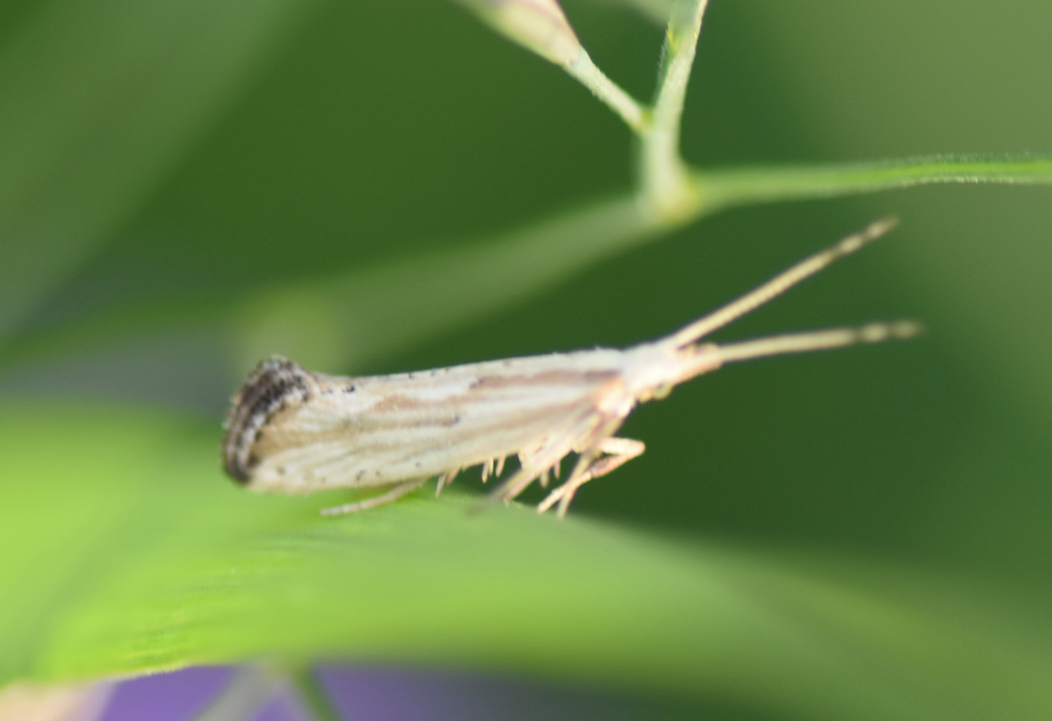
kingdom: Animalia
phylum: Arthropoda
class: Insecta
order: Lepidoptera
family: Plutellidae
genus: Plutella
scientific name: Plutella porrectella
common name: Dame's rocket moth
